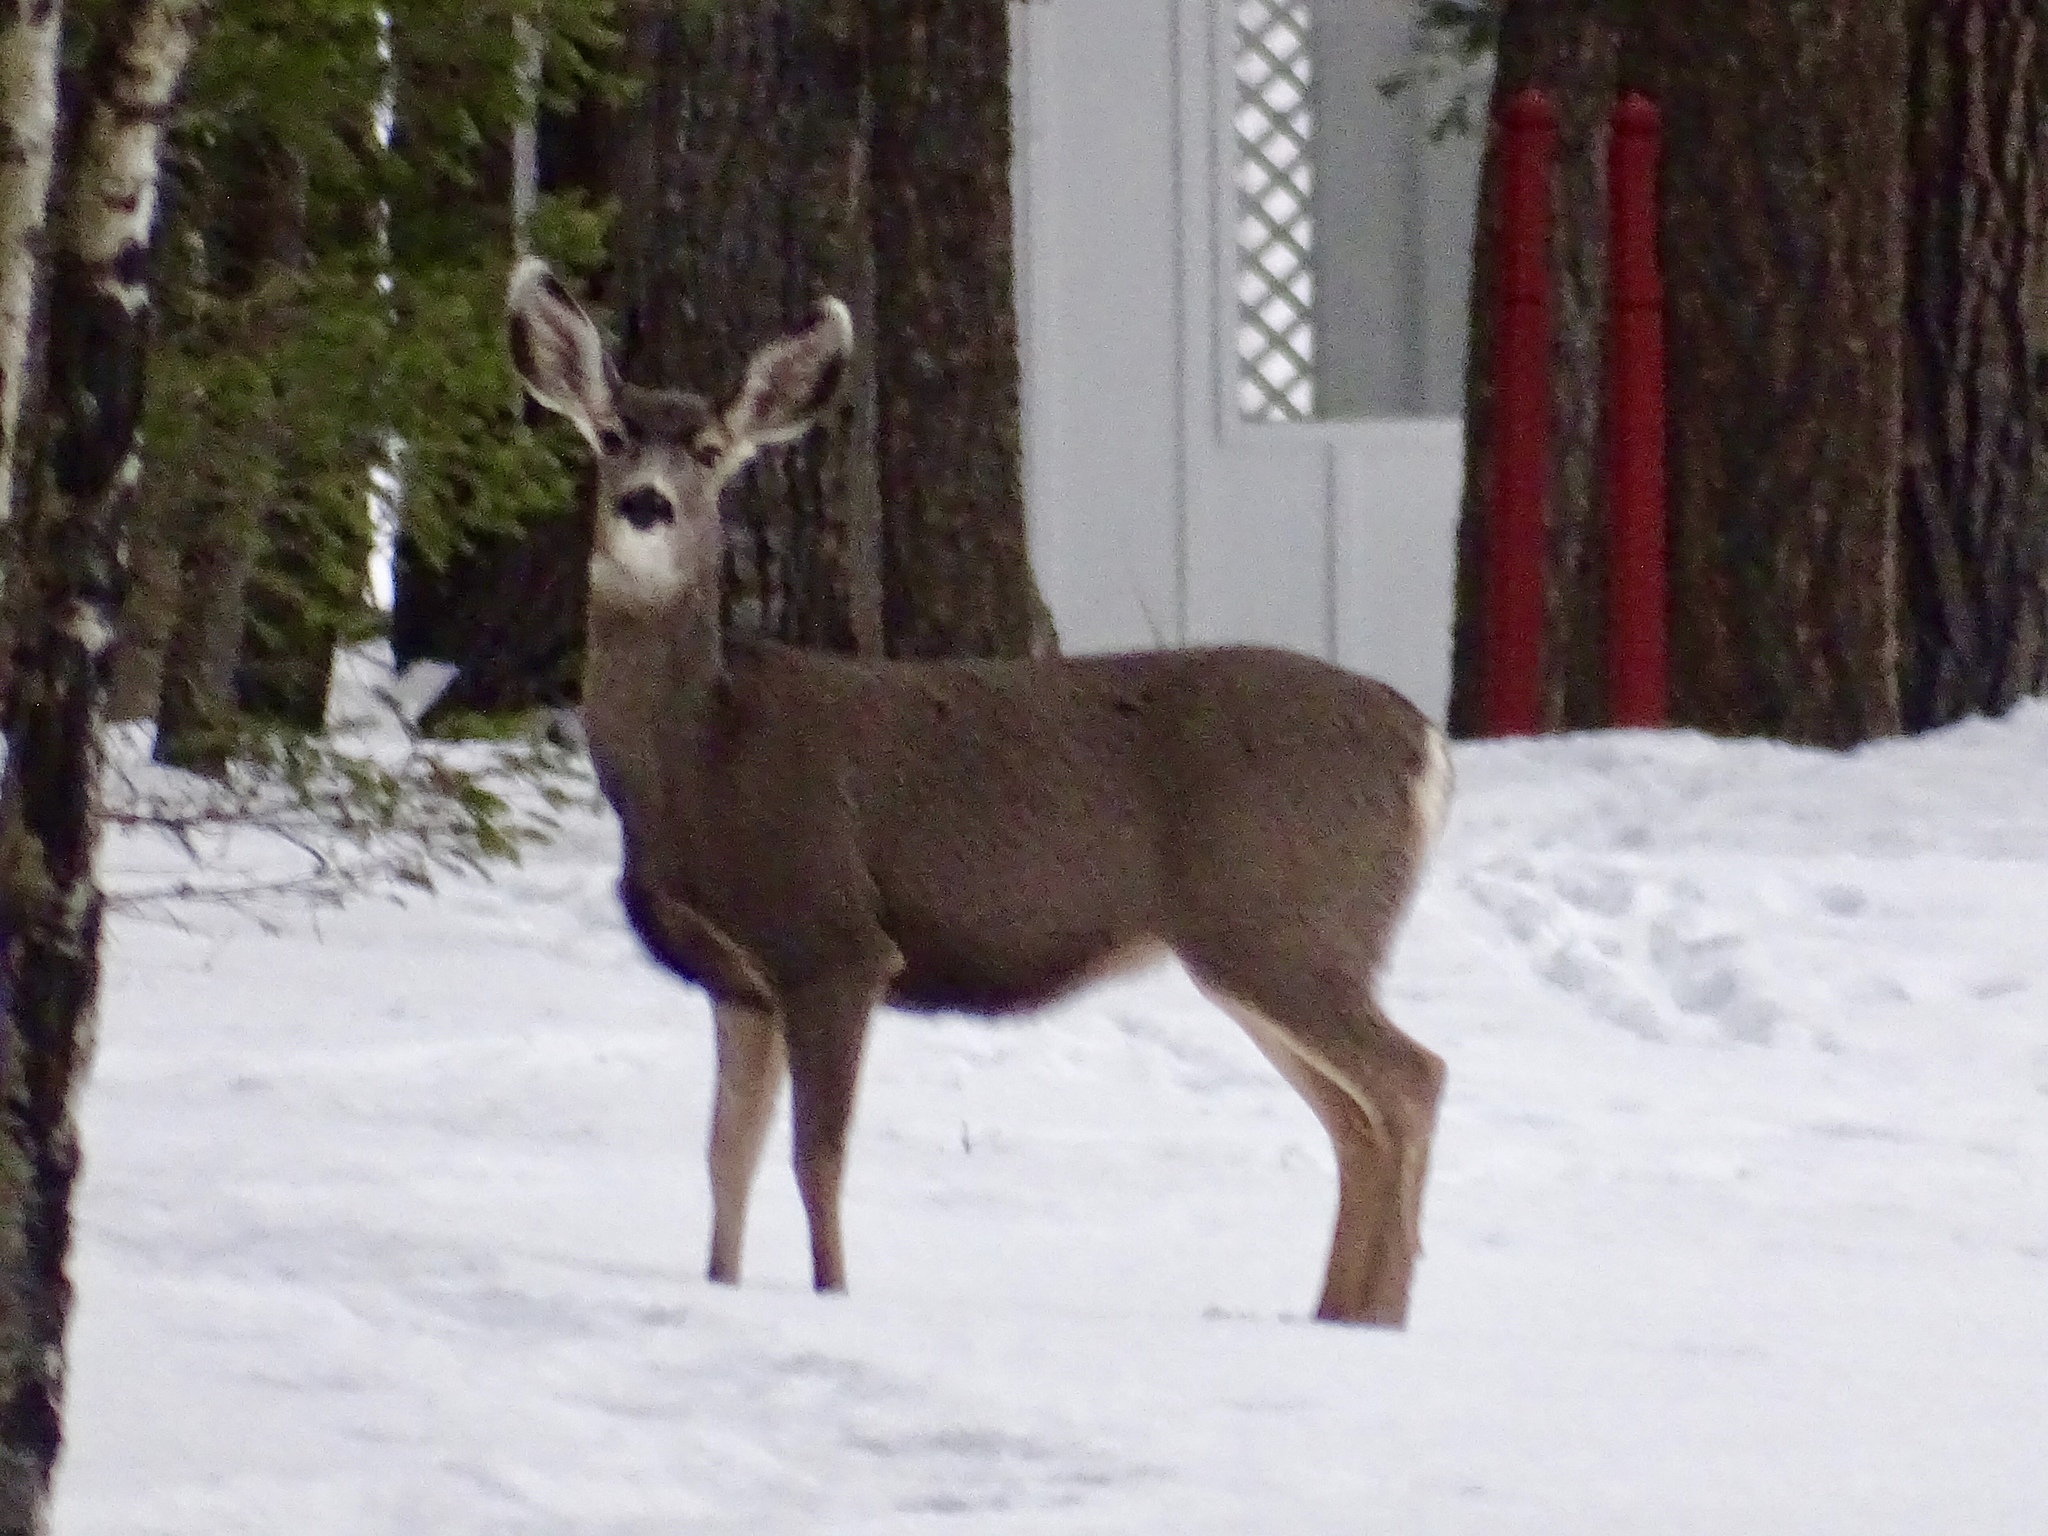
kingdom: Animalia
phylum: Chordata
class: Mammalia
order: Artiodactyla
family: Cervidae
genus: Odocoileus
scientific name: Odocoileus hemionus
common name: Mule deer
